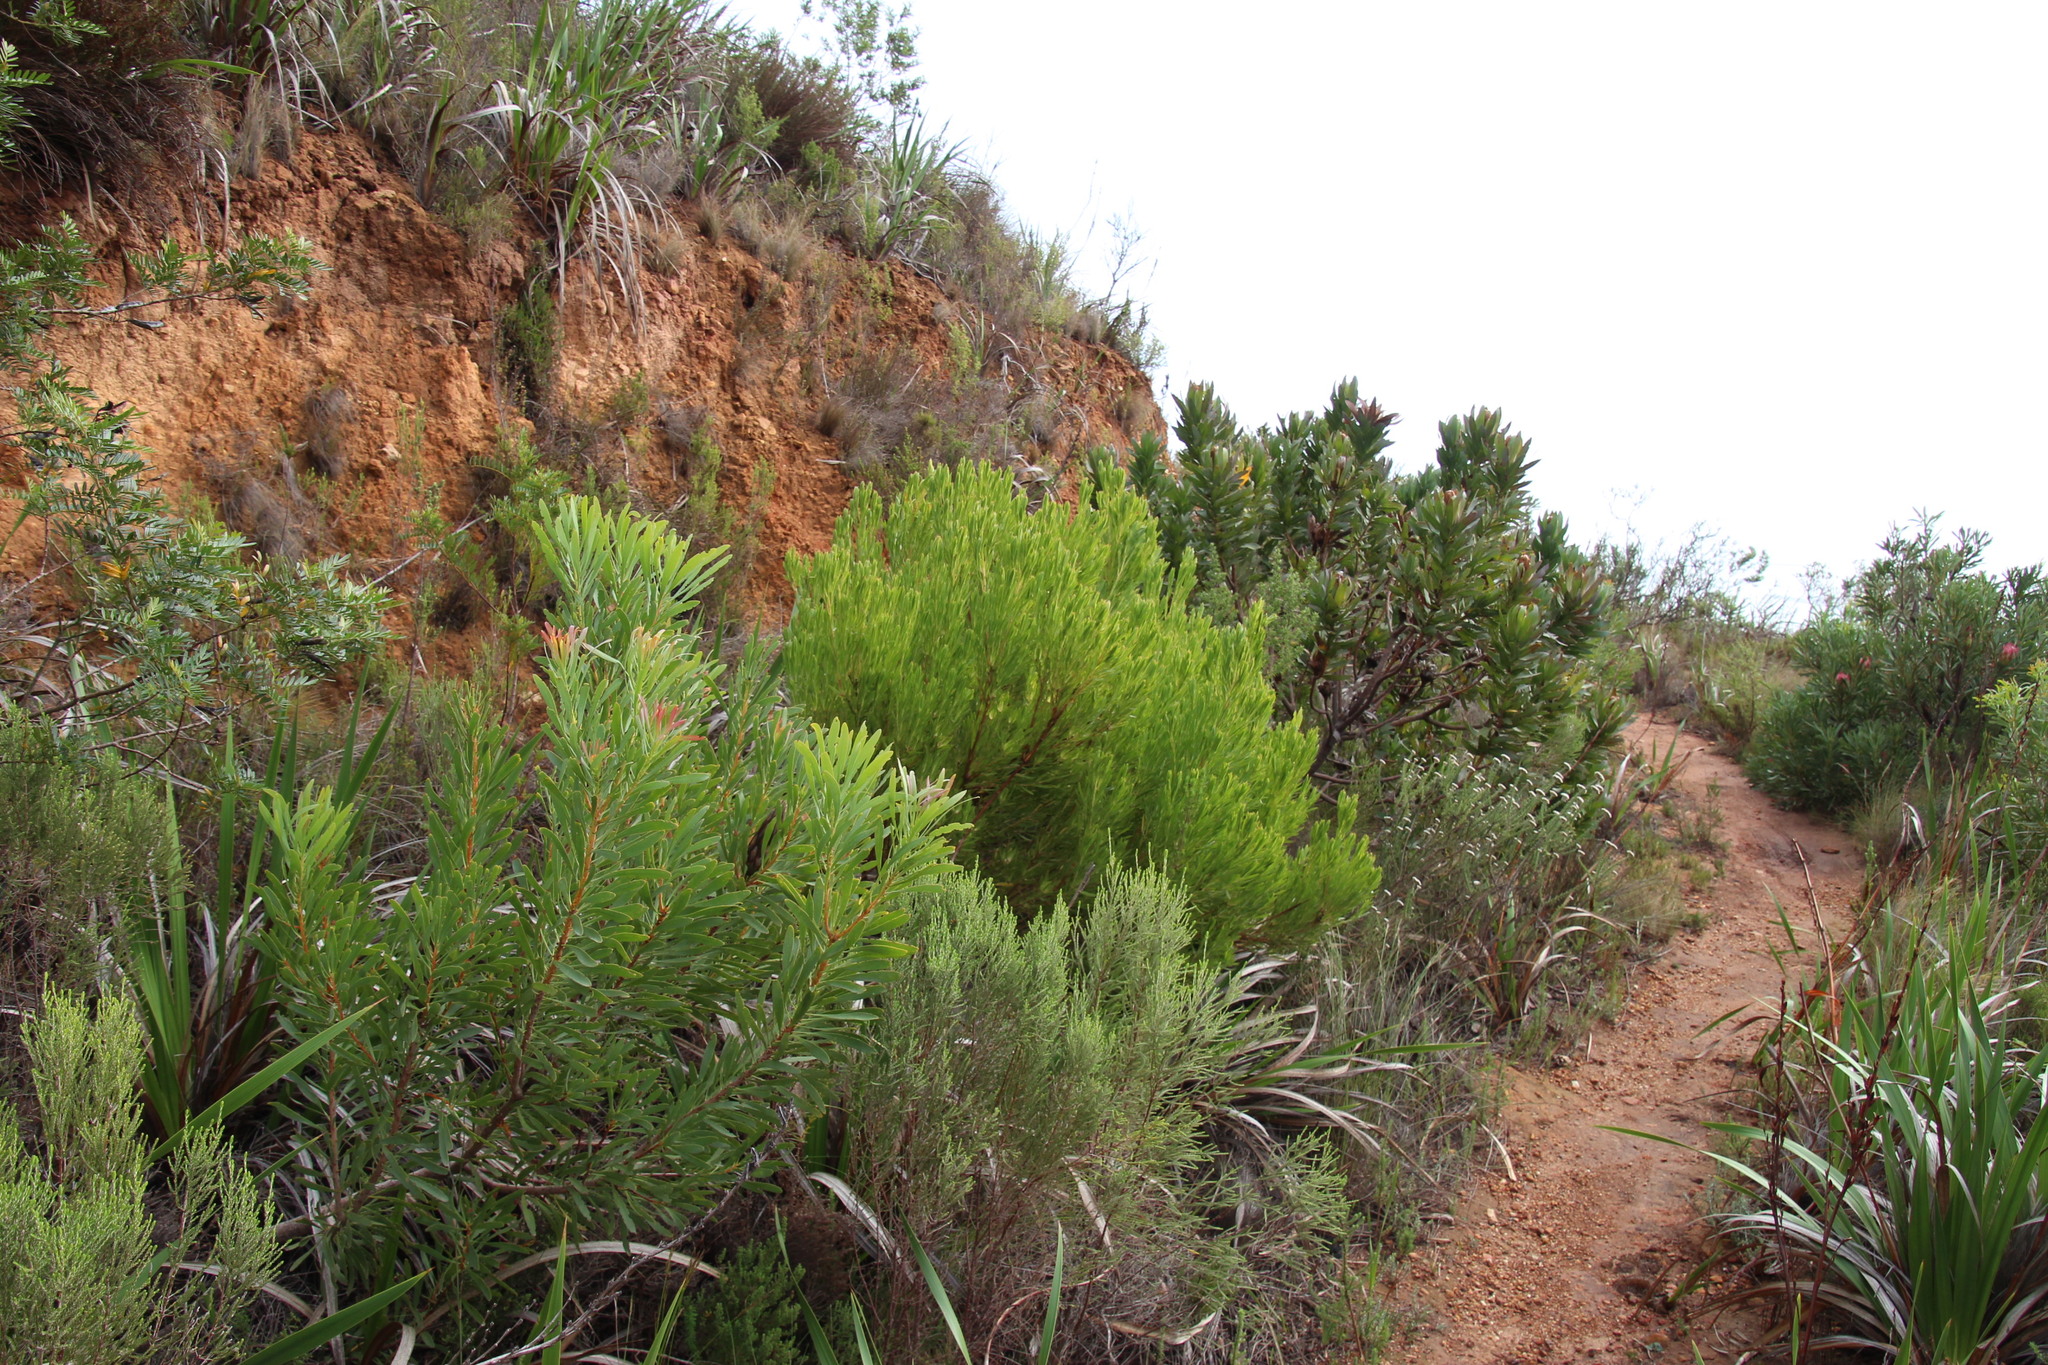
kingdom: Plantae
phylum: Tracheophyta
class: Magnoliopsida
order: Proteales
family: Proteaceae
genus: Leucadendron
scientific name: Leucadendron xanthoconus
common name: Sickle-leaf conebush
